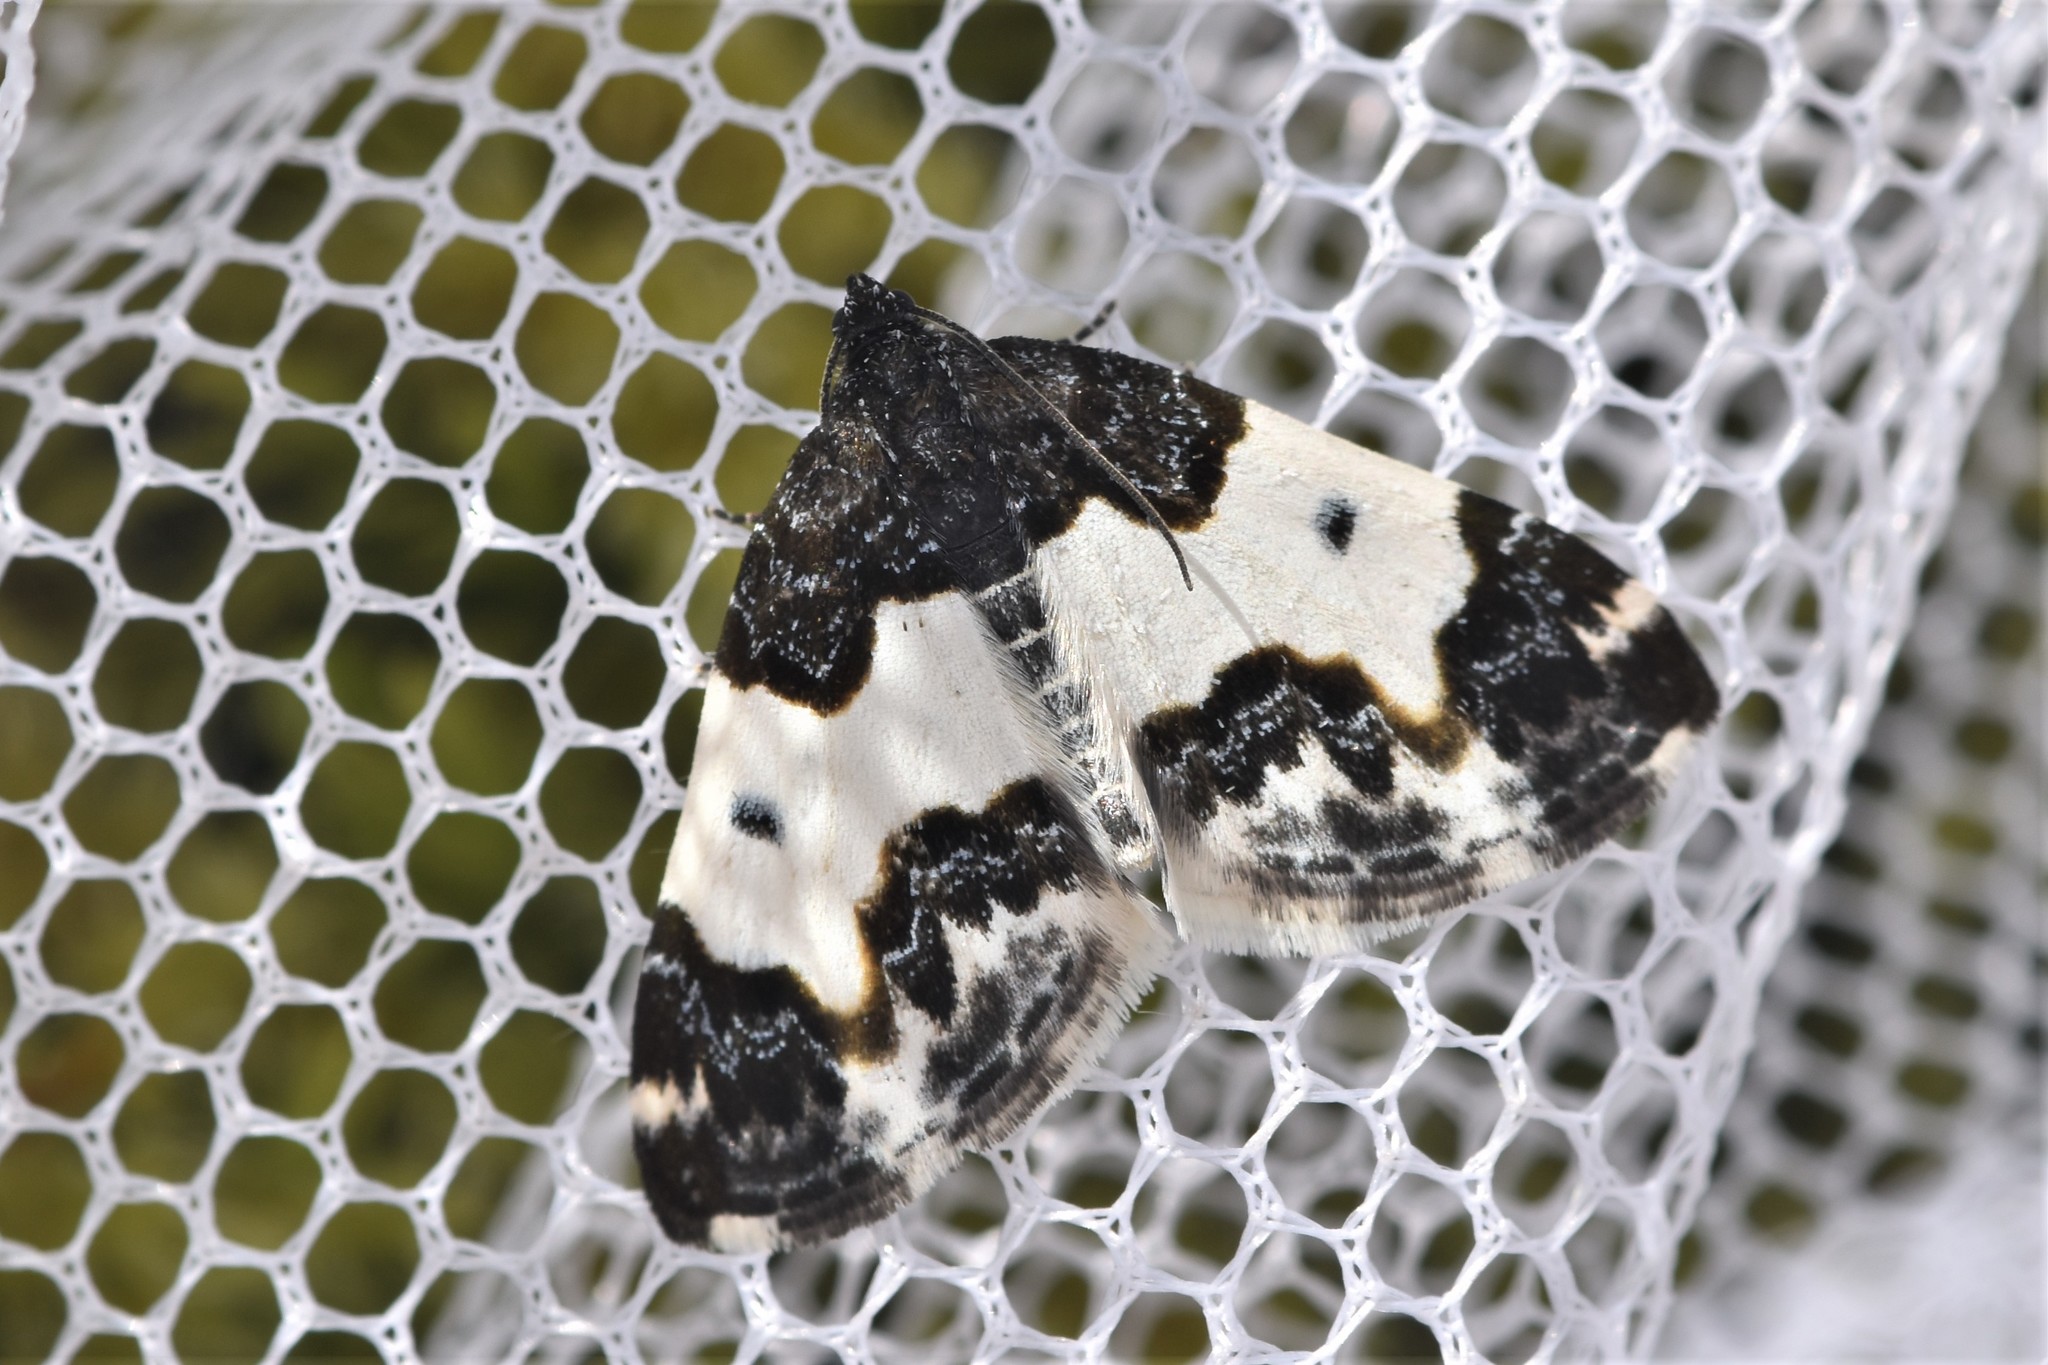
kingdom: Animalia
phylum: Arthropoda
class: Insecta
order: Lepidoptera
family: Geometridae
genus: Mesoleuca
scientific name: Mesoleuca gratulata
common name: Half-white carpet moth
